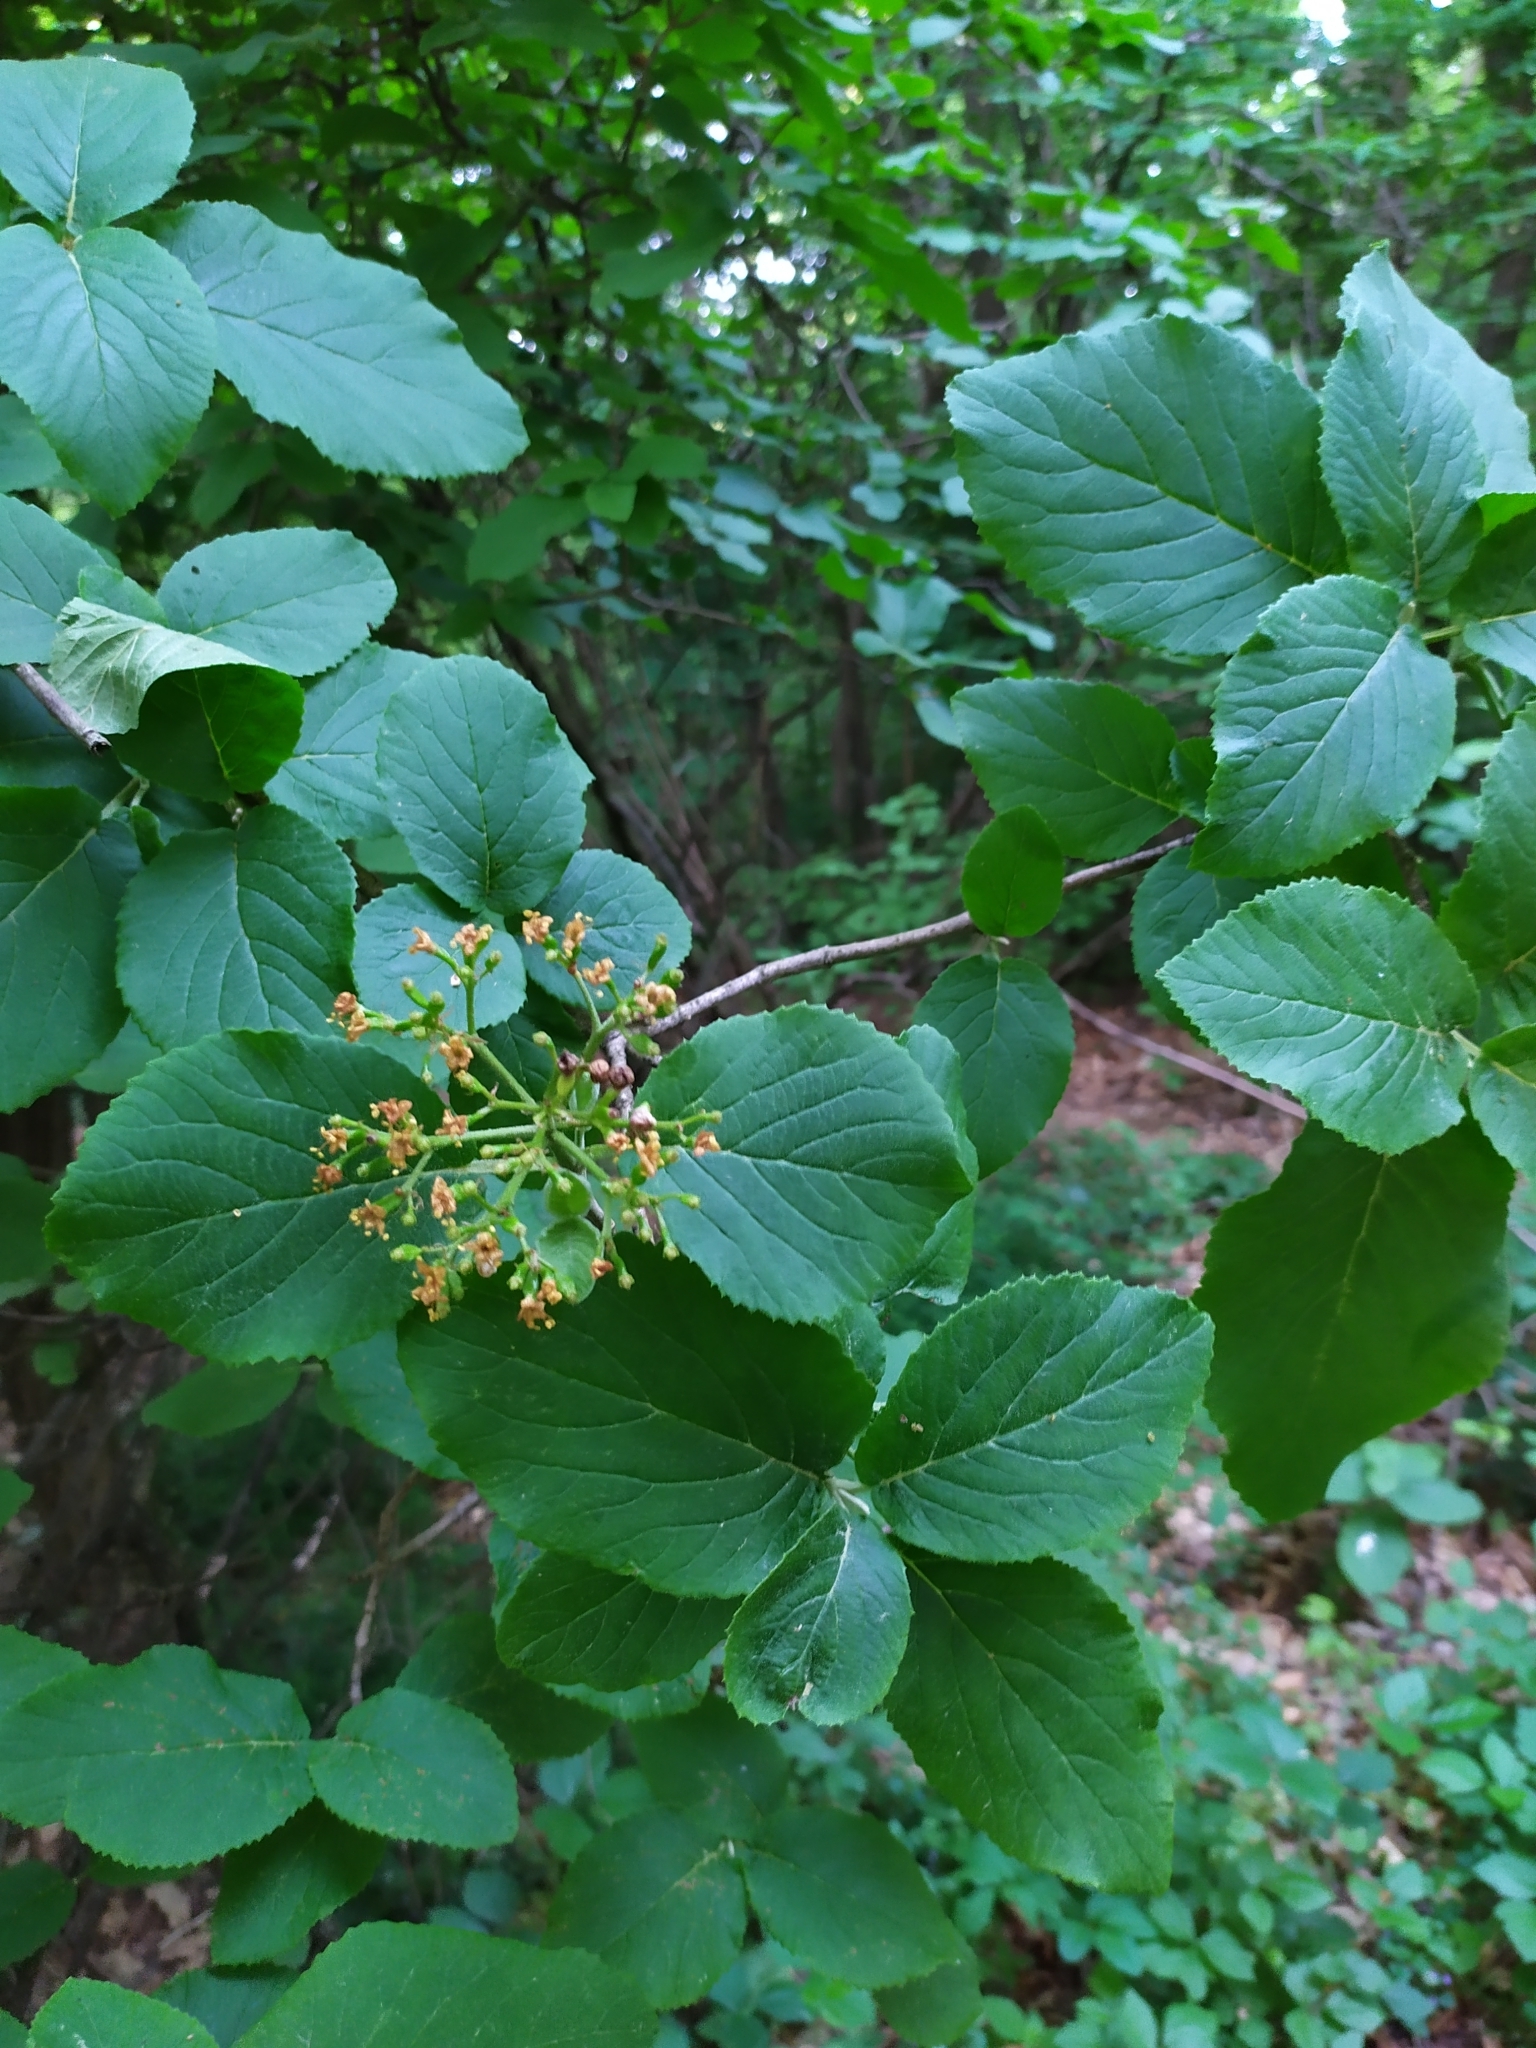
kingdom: Plantae
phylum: Tracheophyta
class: Magnoliopsida
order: Dipsacales
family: Viburnaceae
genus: Viburnum
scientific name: Viburnum lantana
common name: Wayfaring tree
